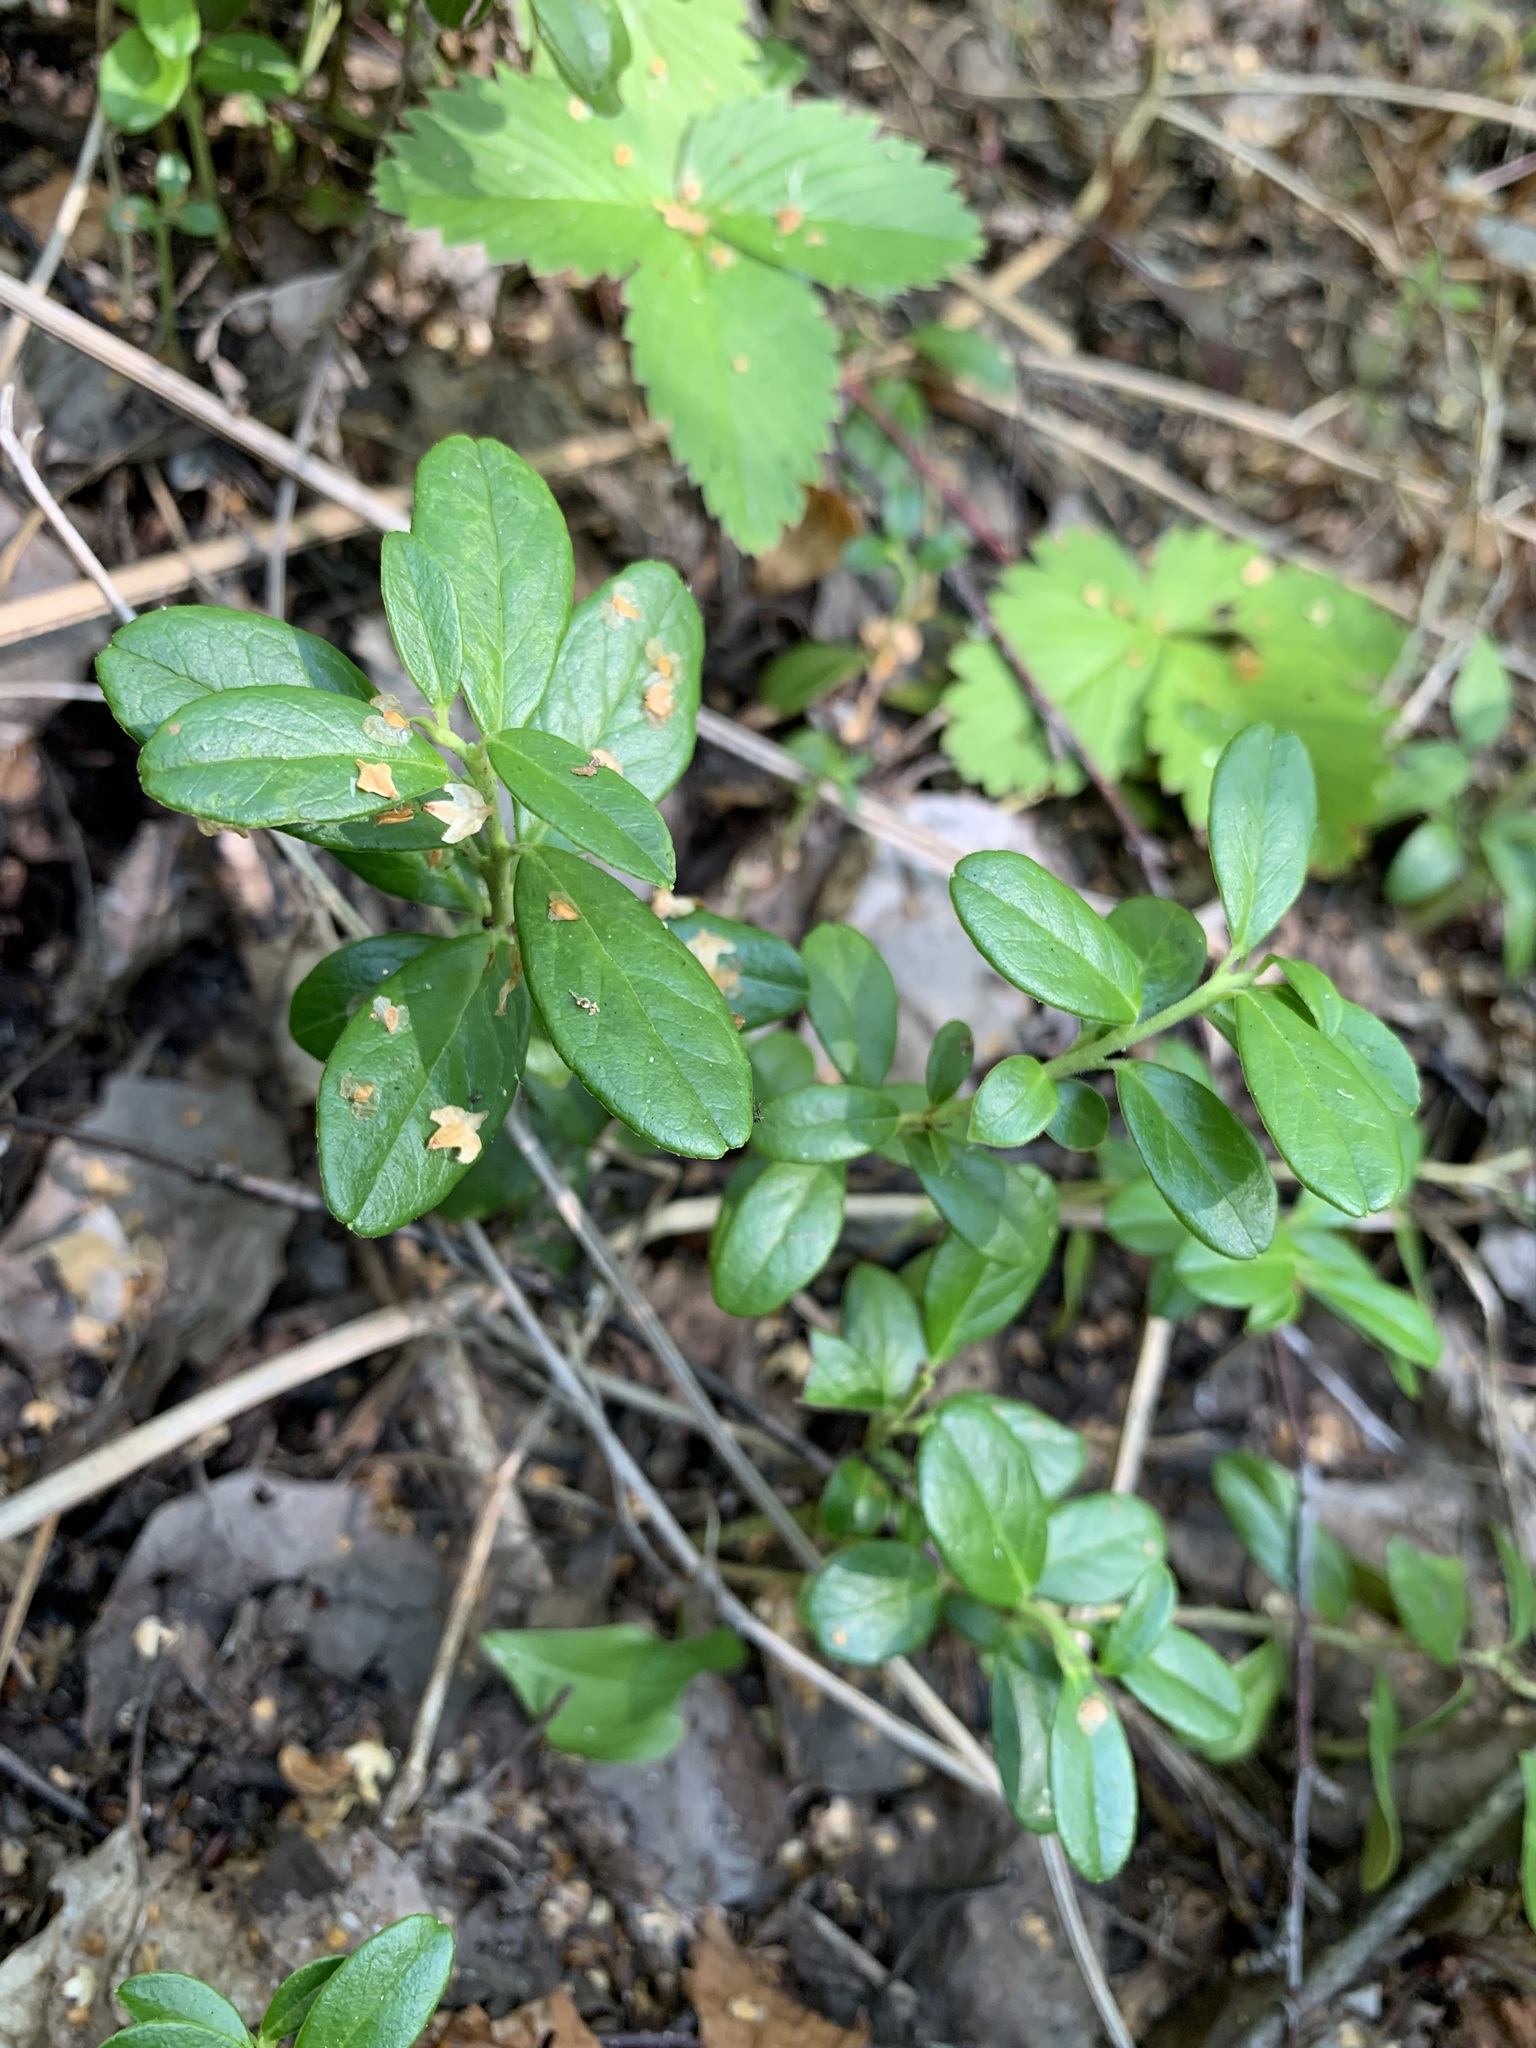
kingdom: Plantae
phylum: Tracheophyta
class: Magnoliopsida
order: Ericales
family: Ericaceae
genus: Vaccinium
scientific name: Vaccinium vitis-idaea
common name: Cowberry
